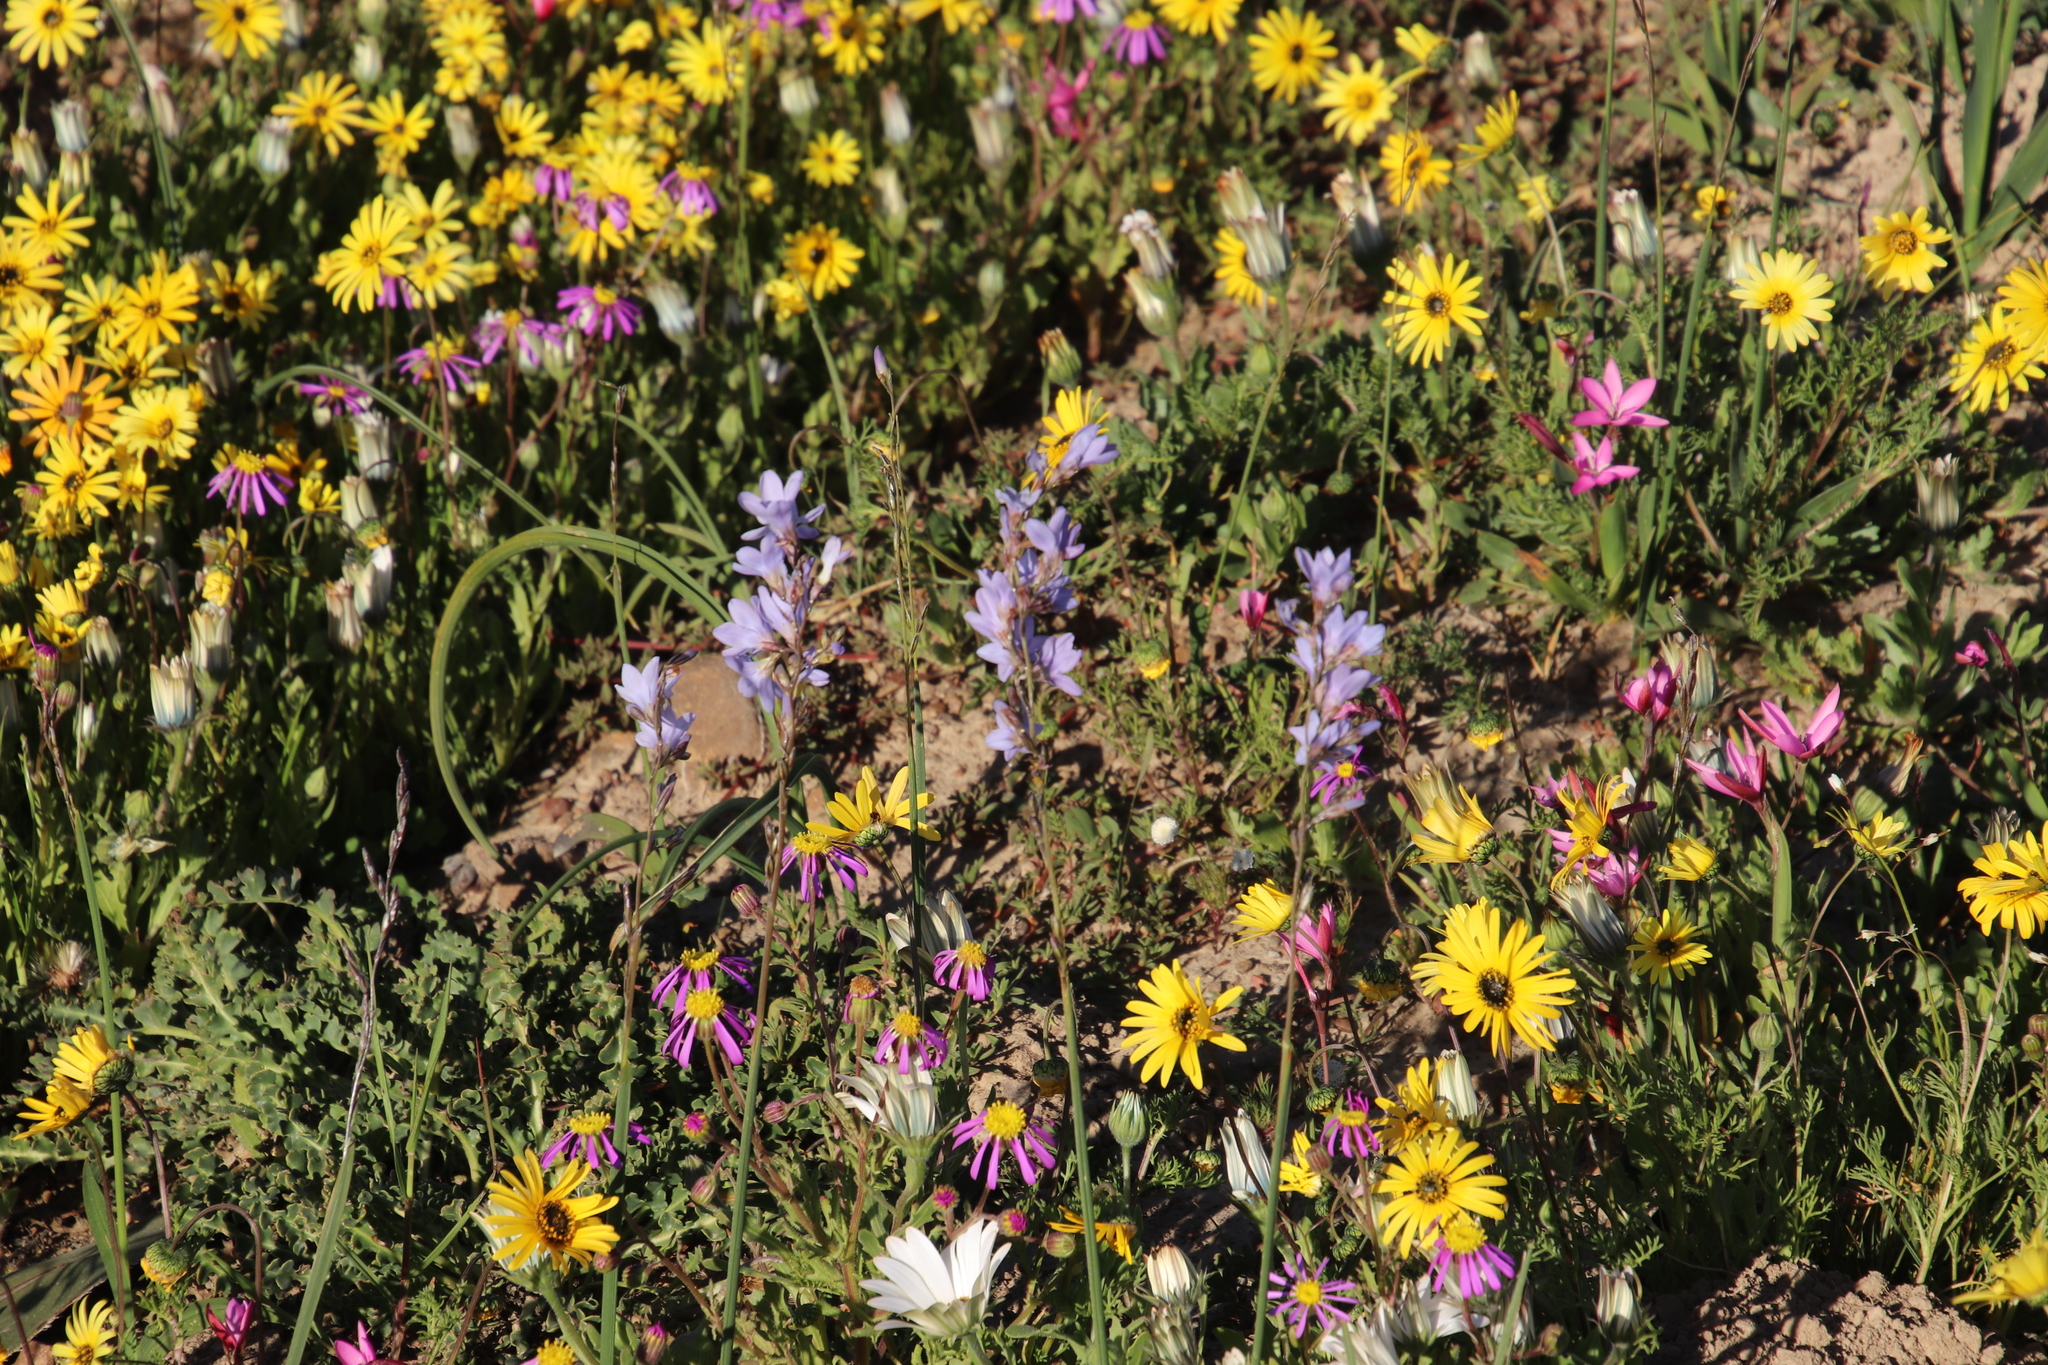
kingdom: Plantae
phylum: Tracheophyta
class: Liliopsida
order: Asparagales
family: Iridaceae
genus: Ixia
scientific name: Ixia rapunculoides
